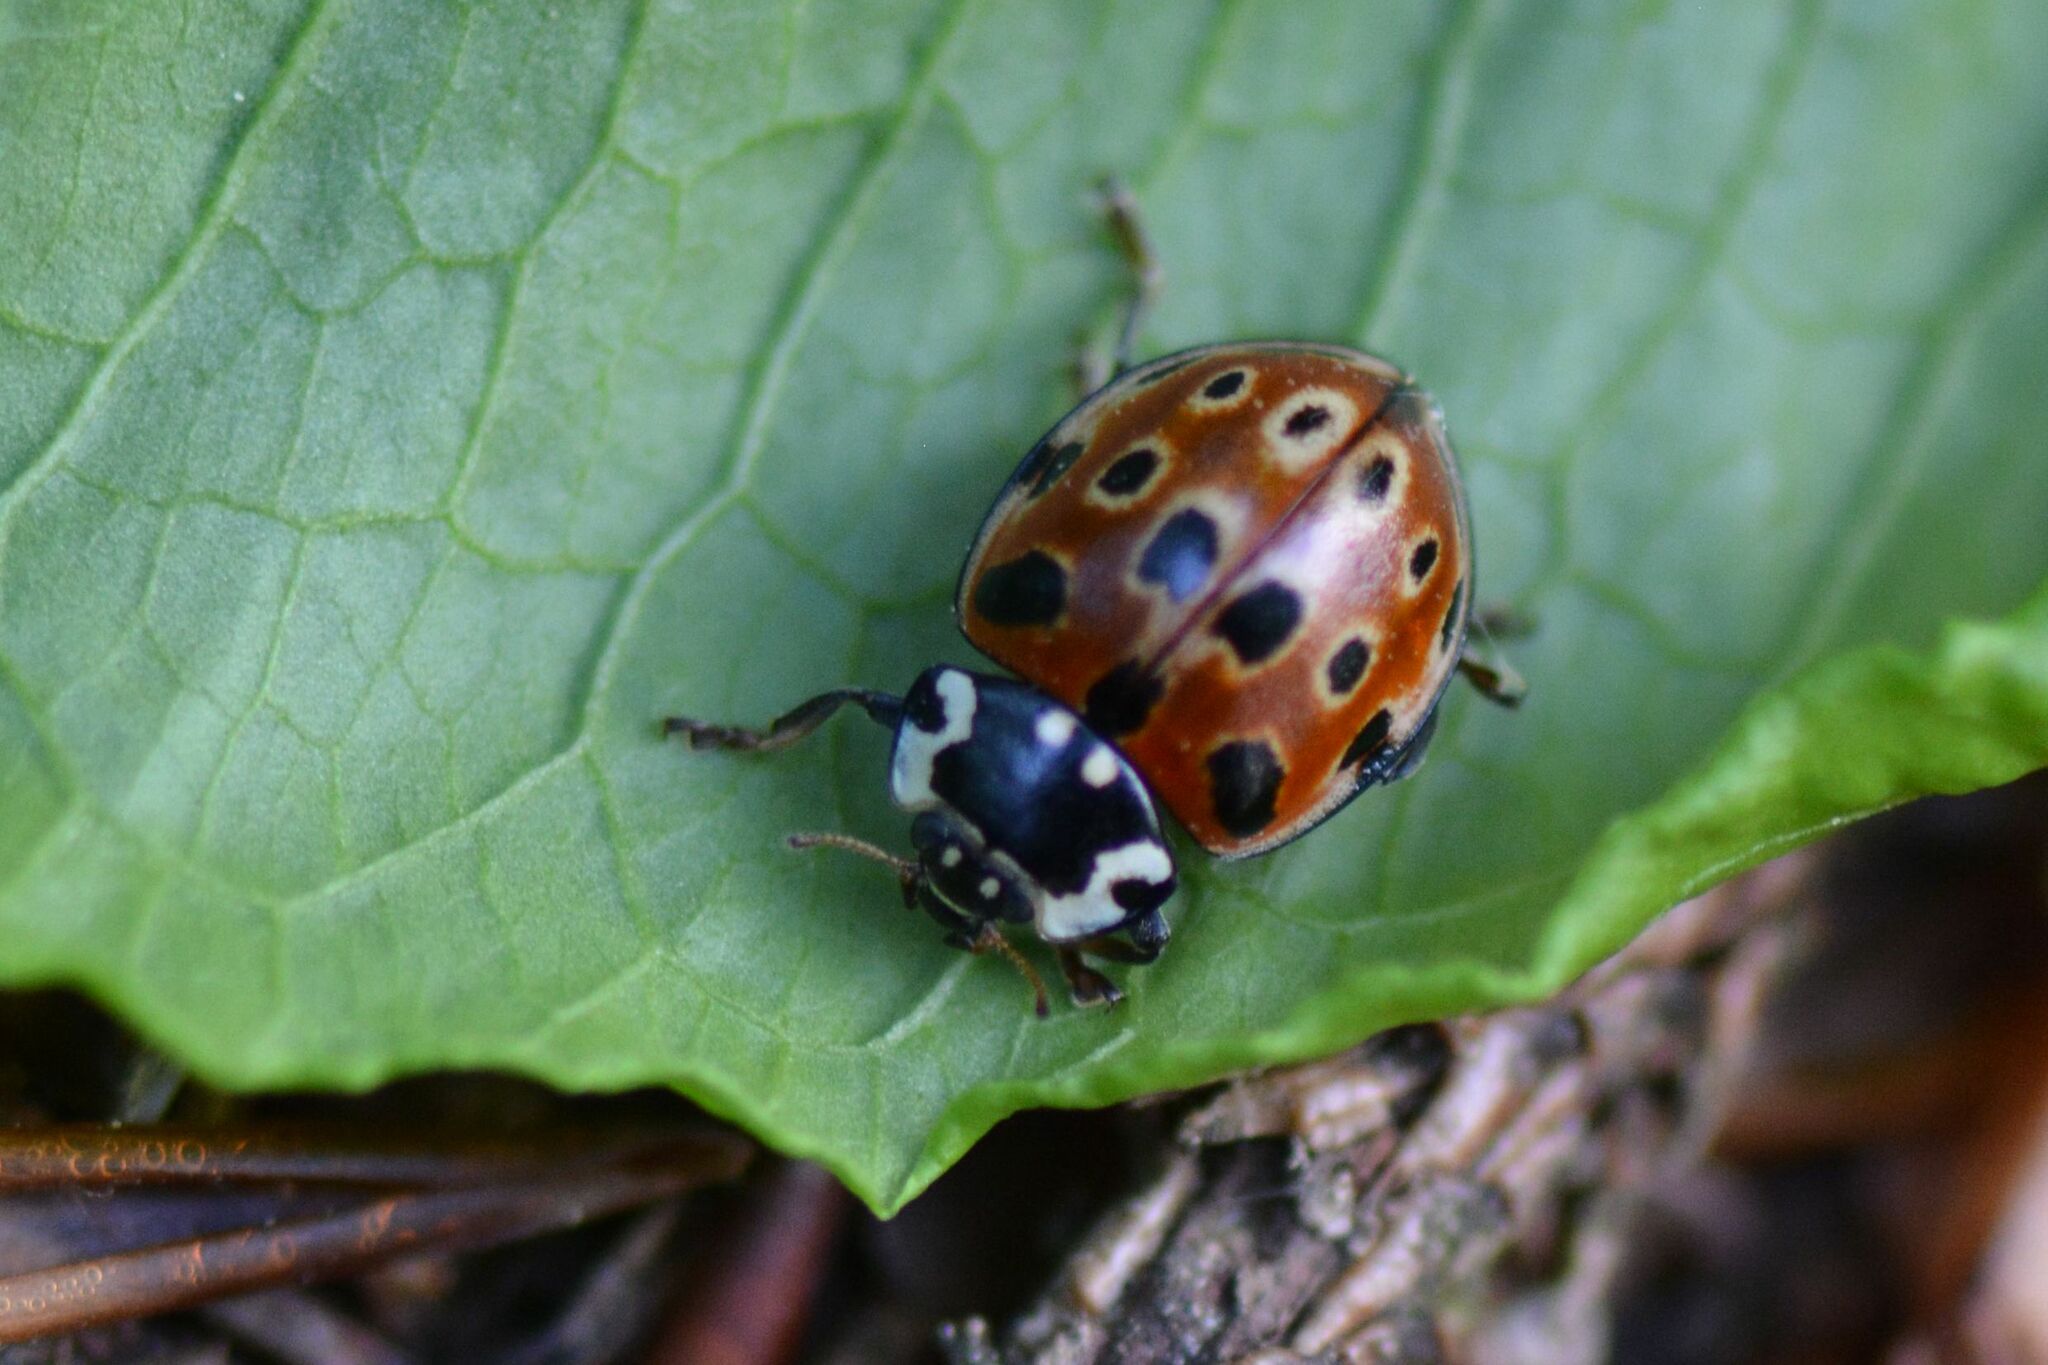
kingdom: Animalia
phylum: Arthropoda
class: Insecta
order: Coleoptera
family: Coccinellidae
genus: Anatis
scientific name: Anatis ocellata
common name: Eyed ladybird
